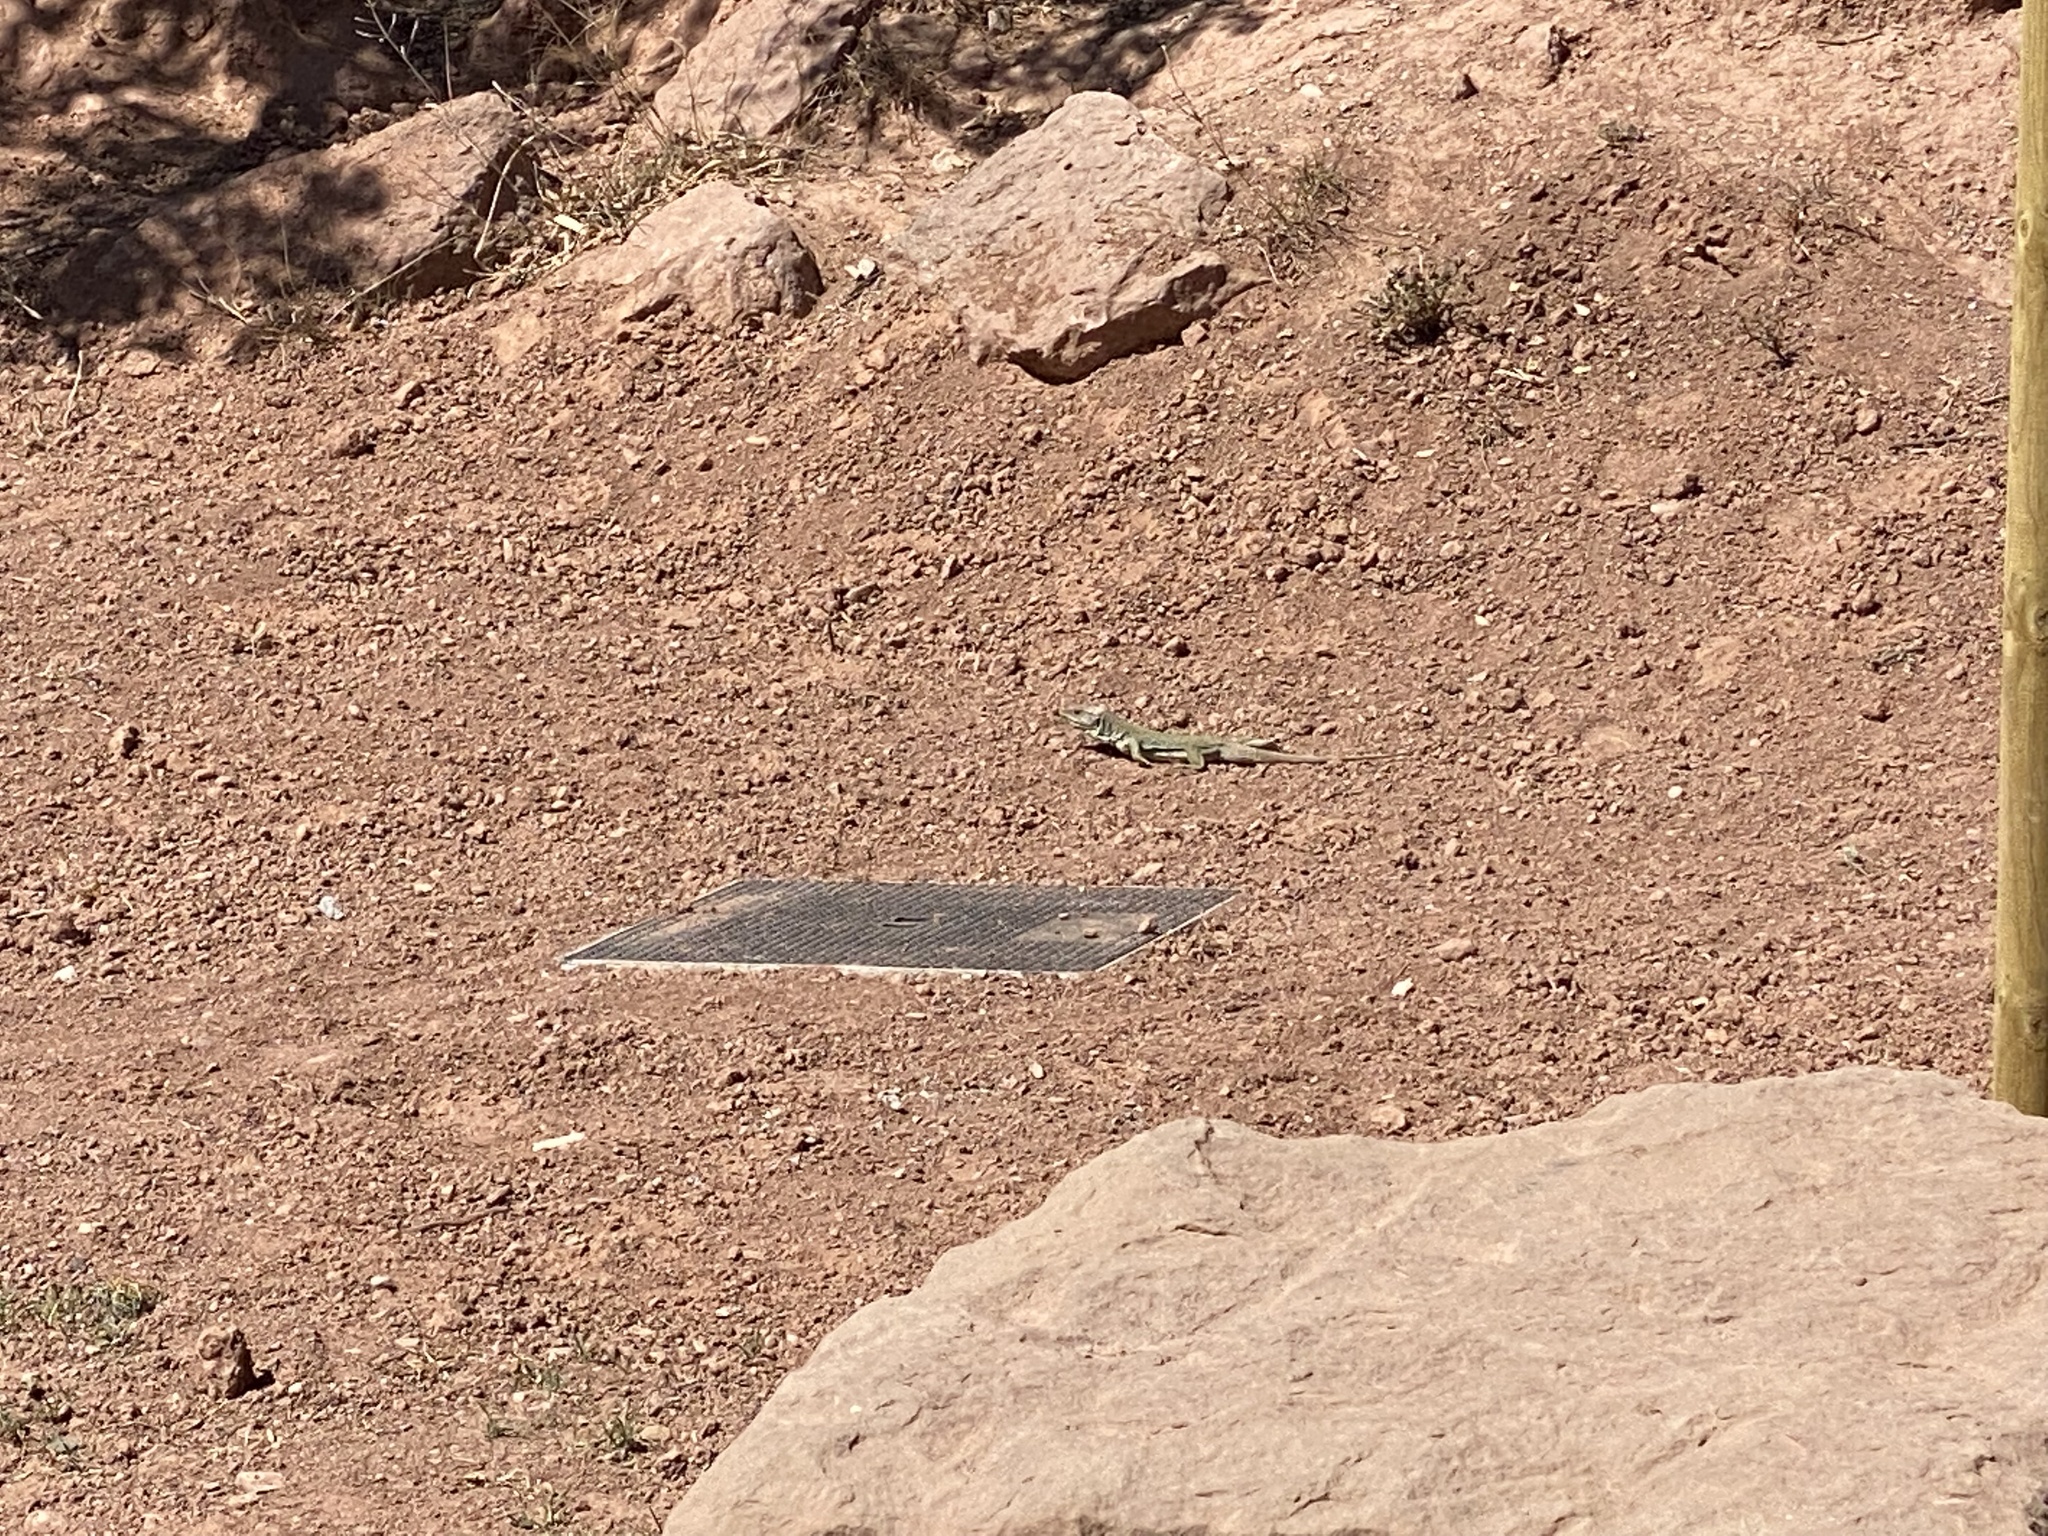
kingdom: Animalia
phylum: Chordata
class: Squamata
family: Lacertidae
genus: Timon
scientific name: Timon lepidus
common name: Ocellated lizard
